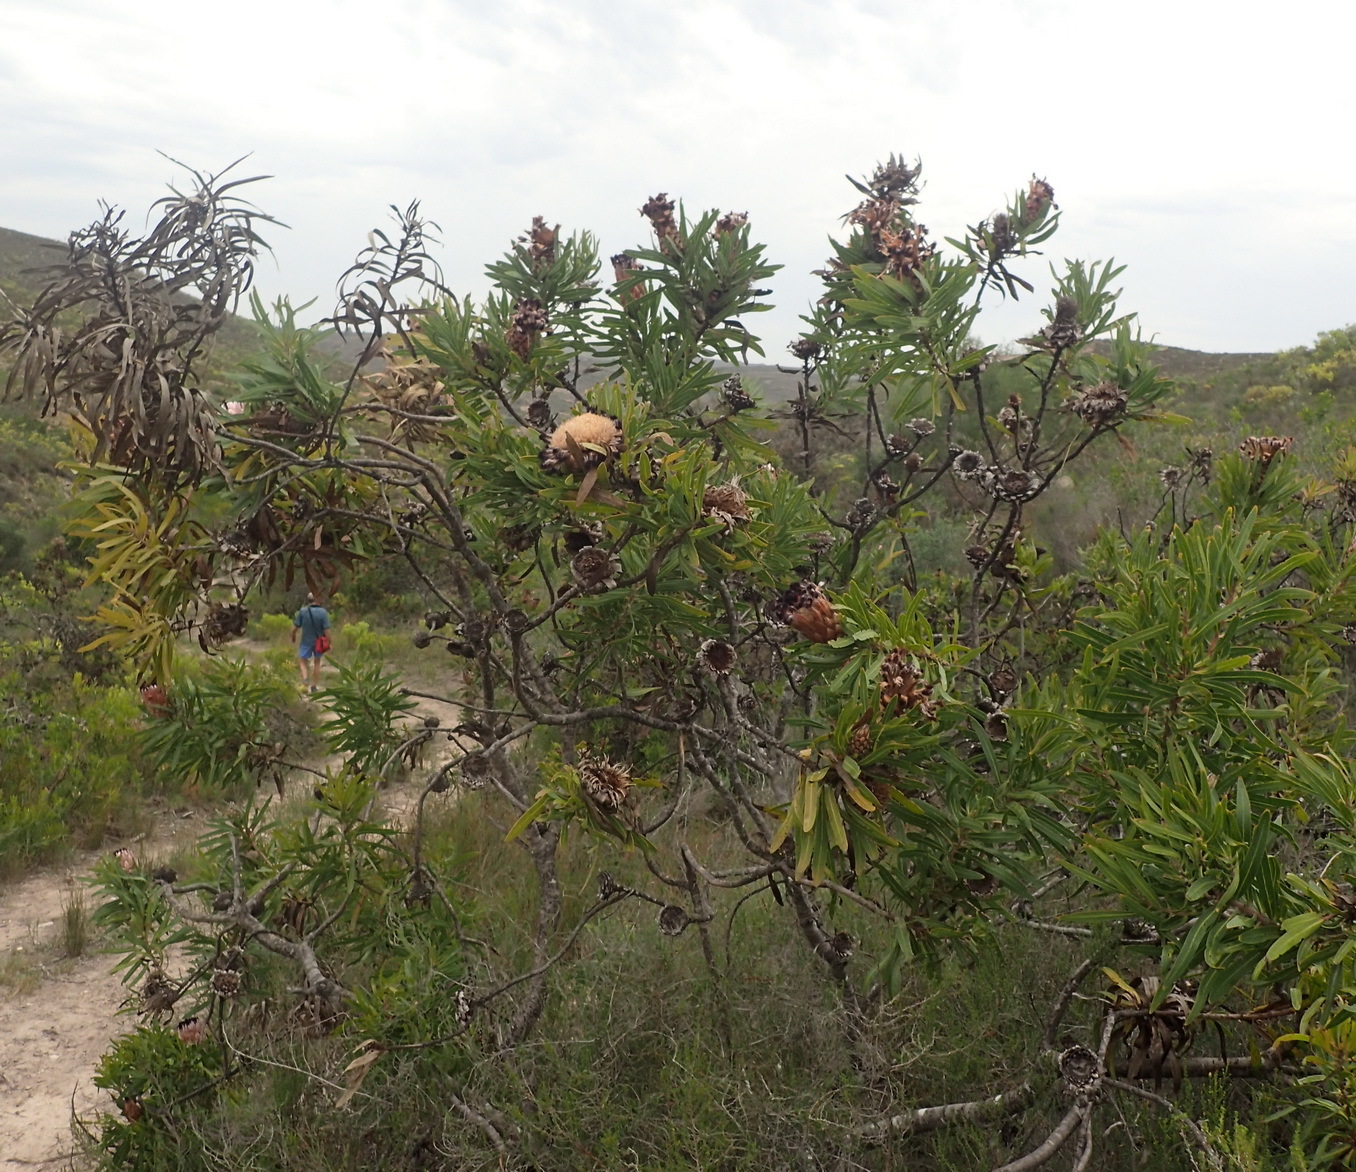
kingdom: Plantae
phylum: Tracheophyta
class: Magnoliopsida
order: Proteales
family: Proteaceae
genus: Protea
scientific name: Protea neriifolia
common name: Blue sugarbush
